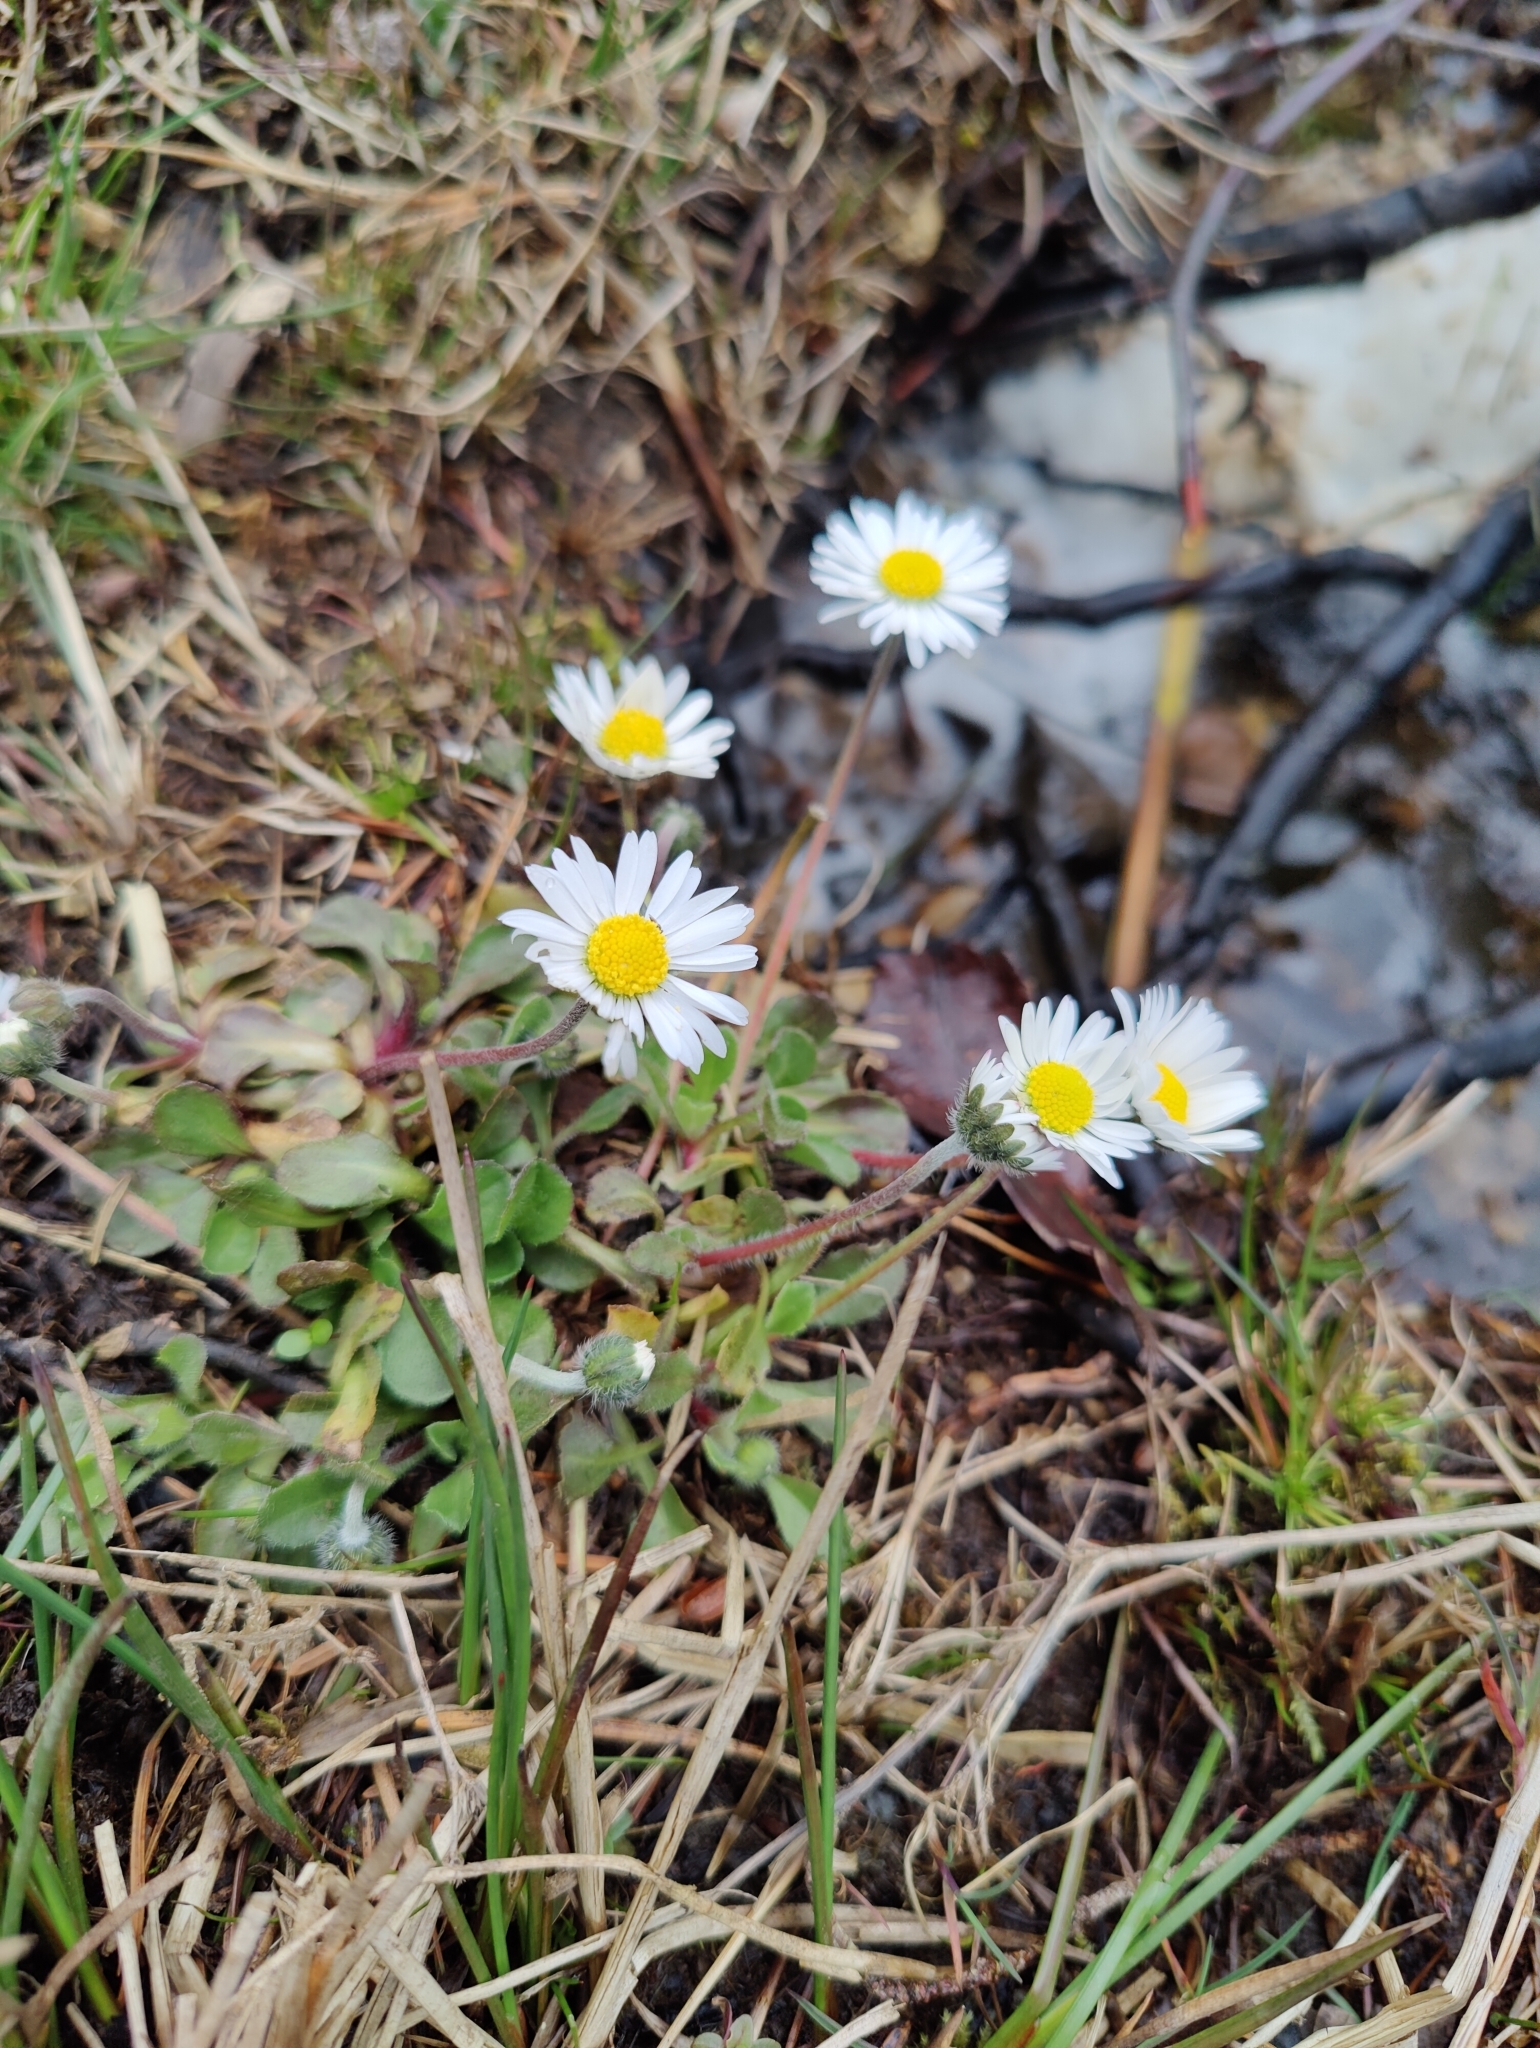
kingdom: Plantae
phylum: Tracheophyta
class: Magnoliopsida
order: Asterales
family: Asteraceae
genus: Bellis
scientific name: Bellis perennis
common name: Lawndaisy
